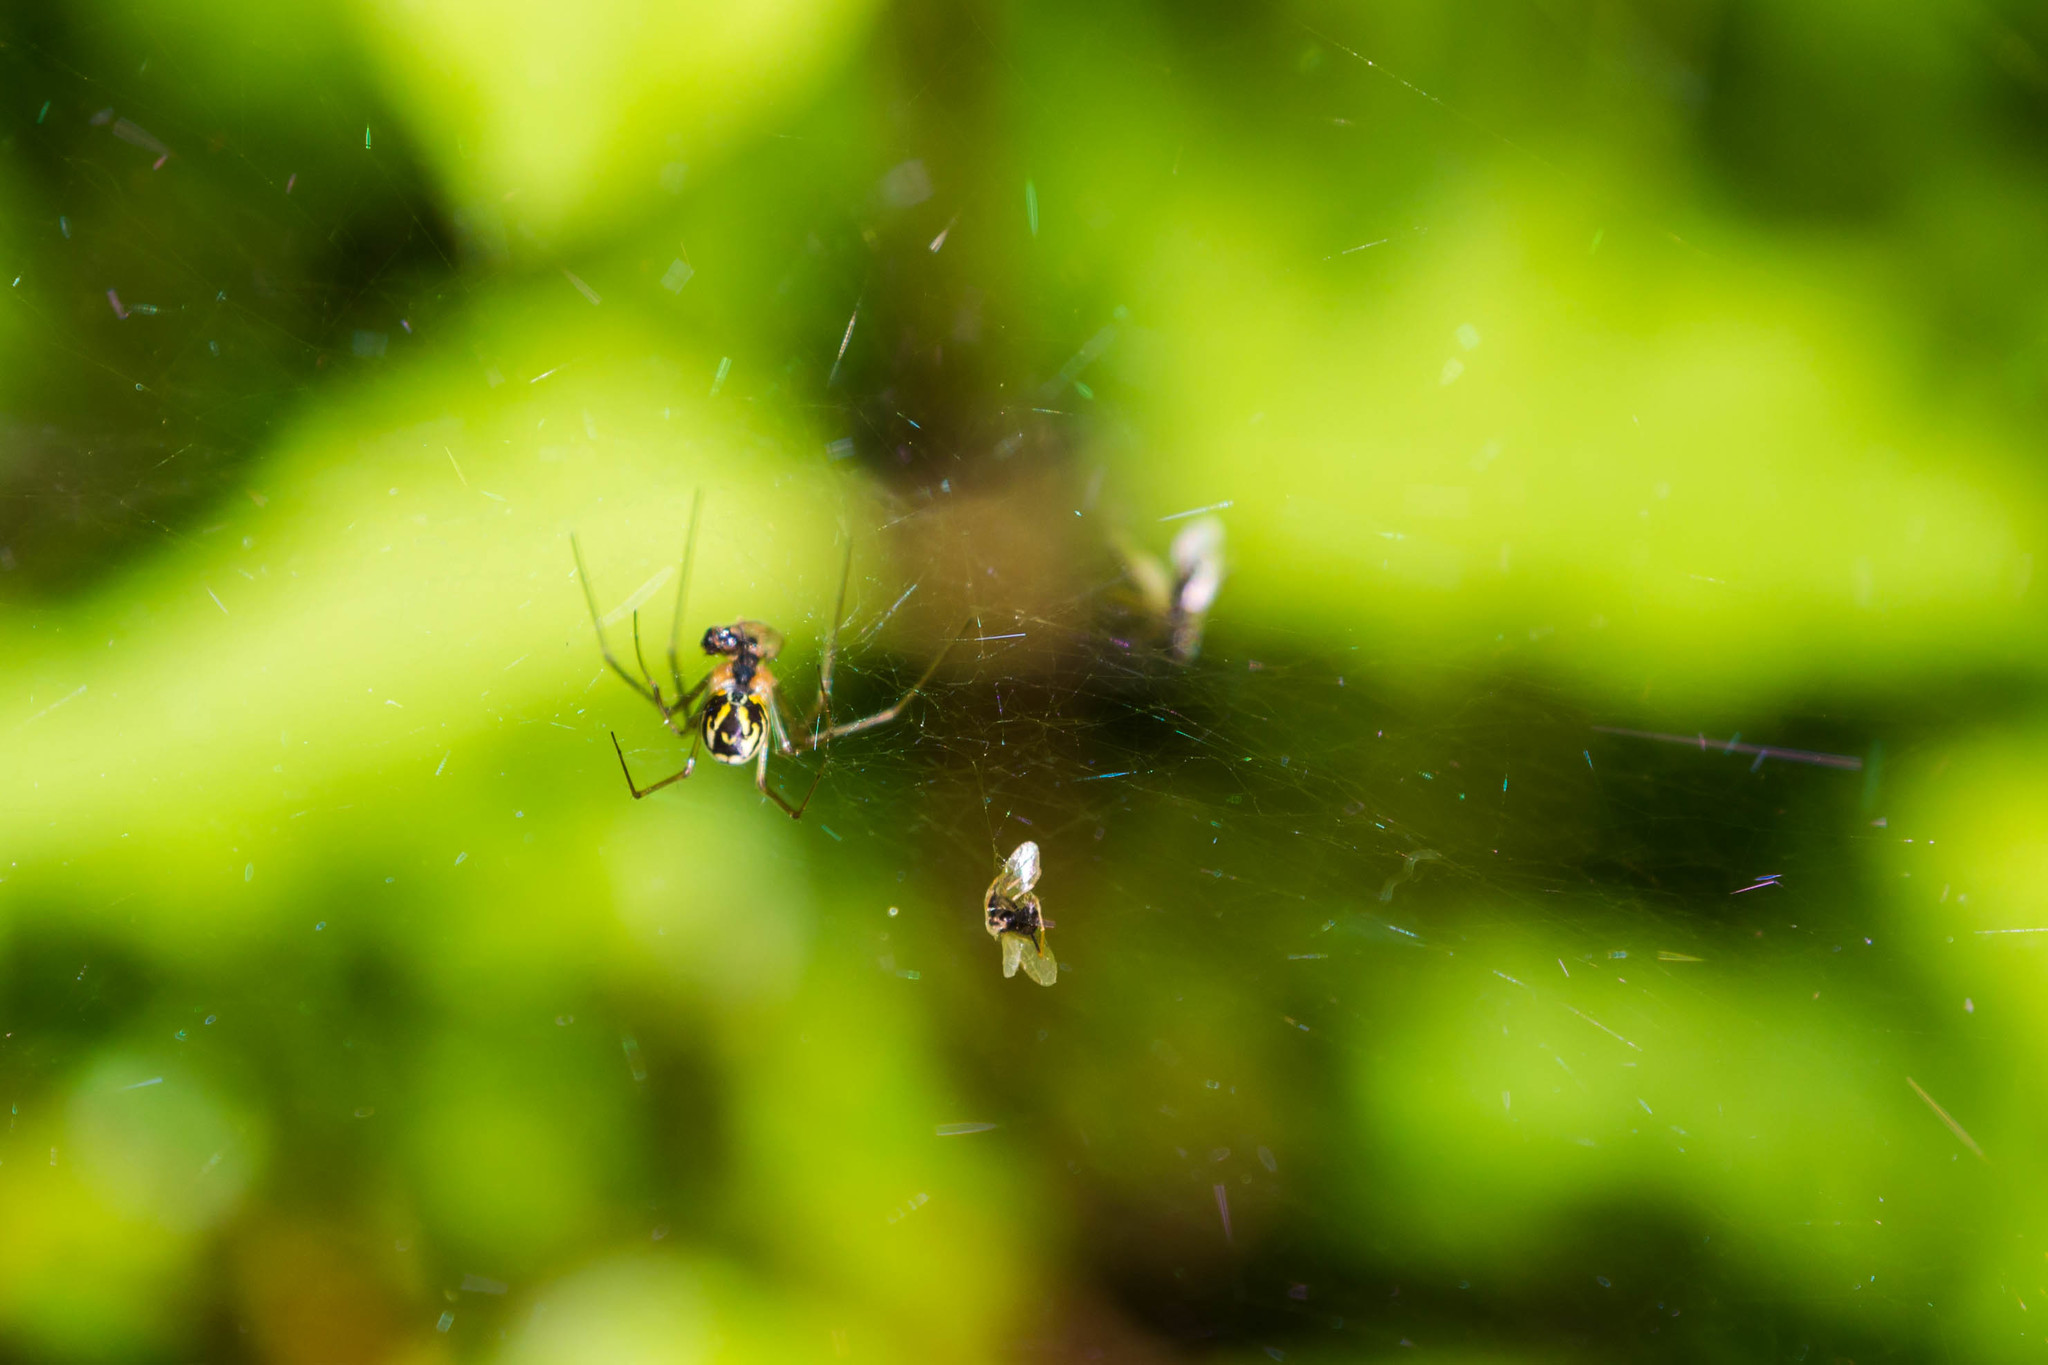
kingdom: Animalia
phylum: Arthropoda
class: Arachnida
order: Araneae
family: Linyphiidae
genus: Neriene
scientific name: Neriene radiata
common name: Filmy dome spider
